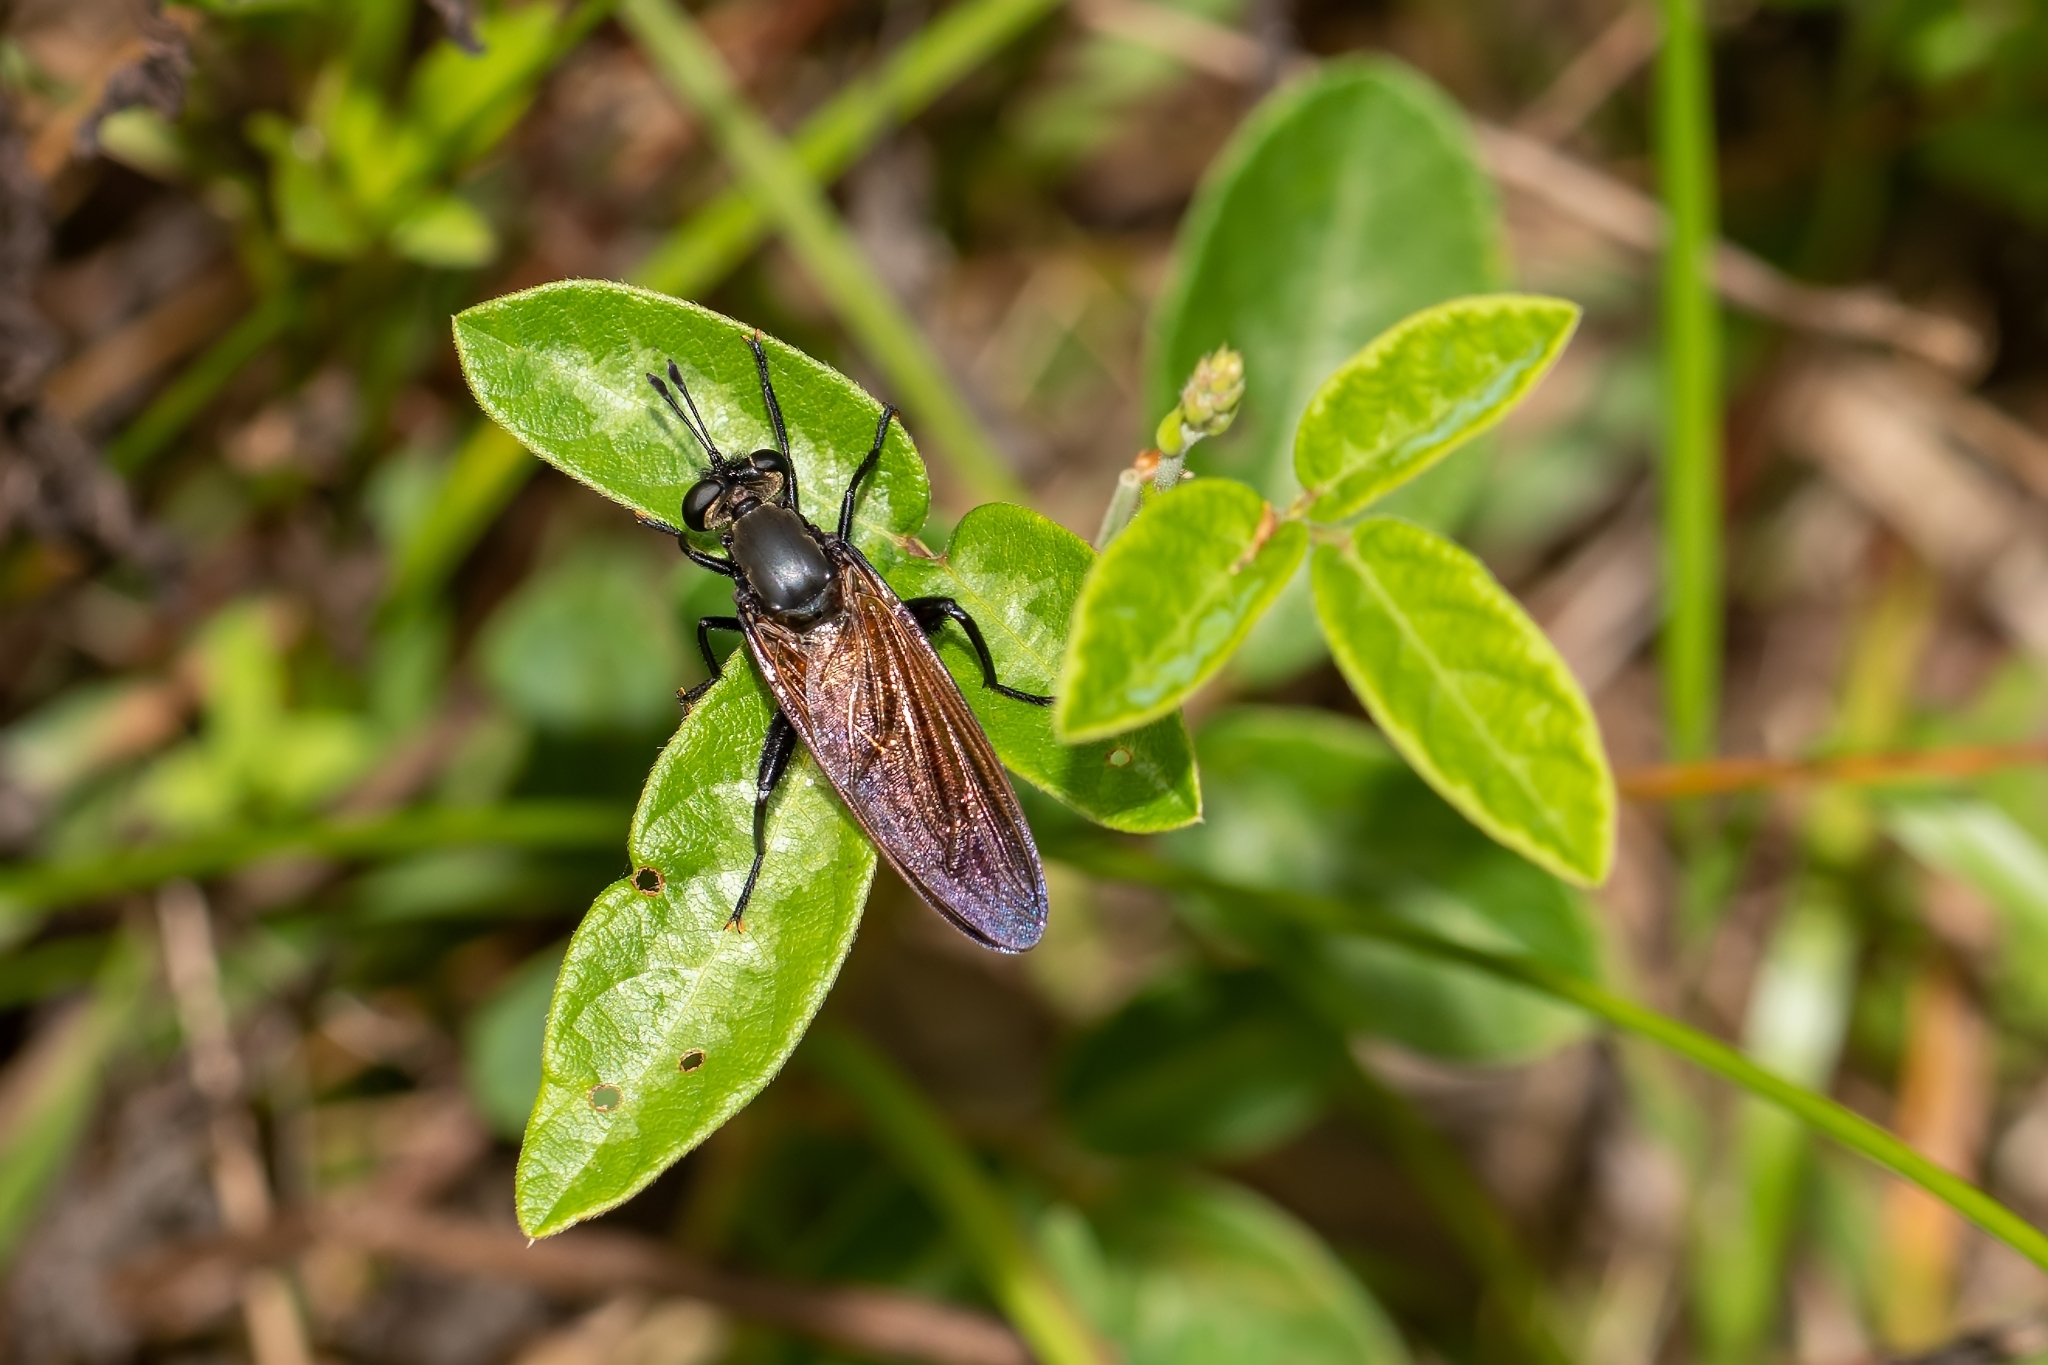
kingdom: Animalia
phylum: Arthropoda
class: Insecta
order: Diptera
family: Mydidae
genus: Mydas
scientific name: Mydas maculiventris
